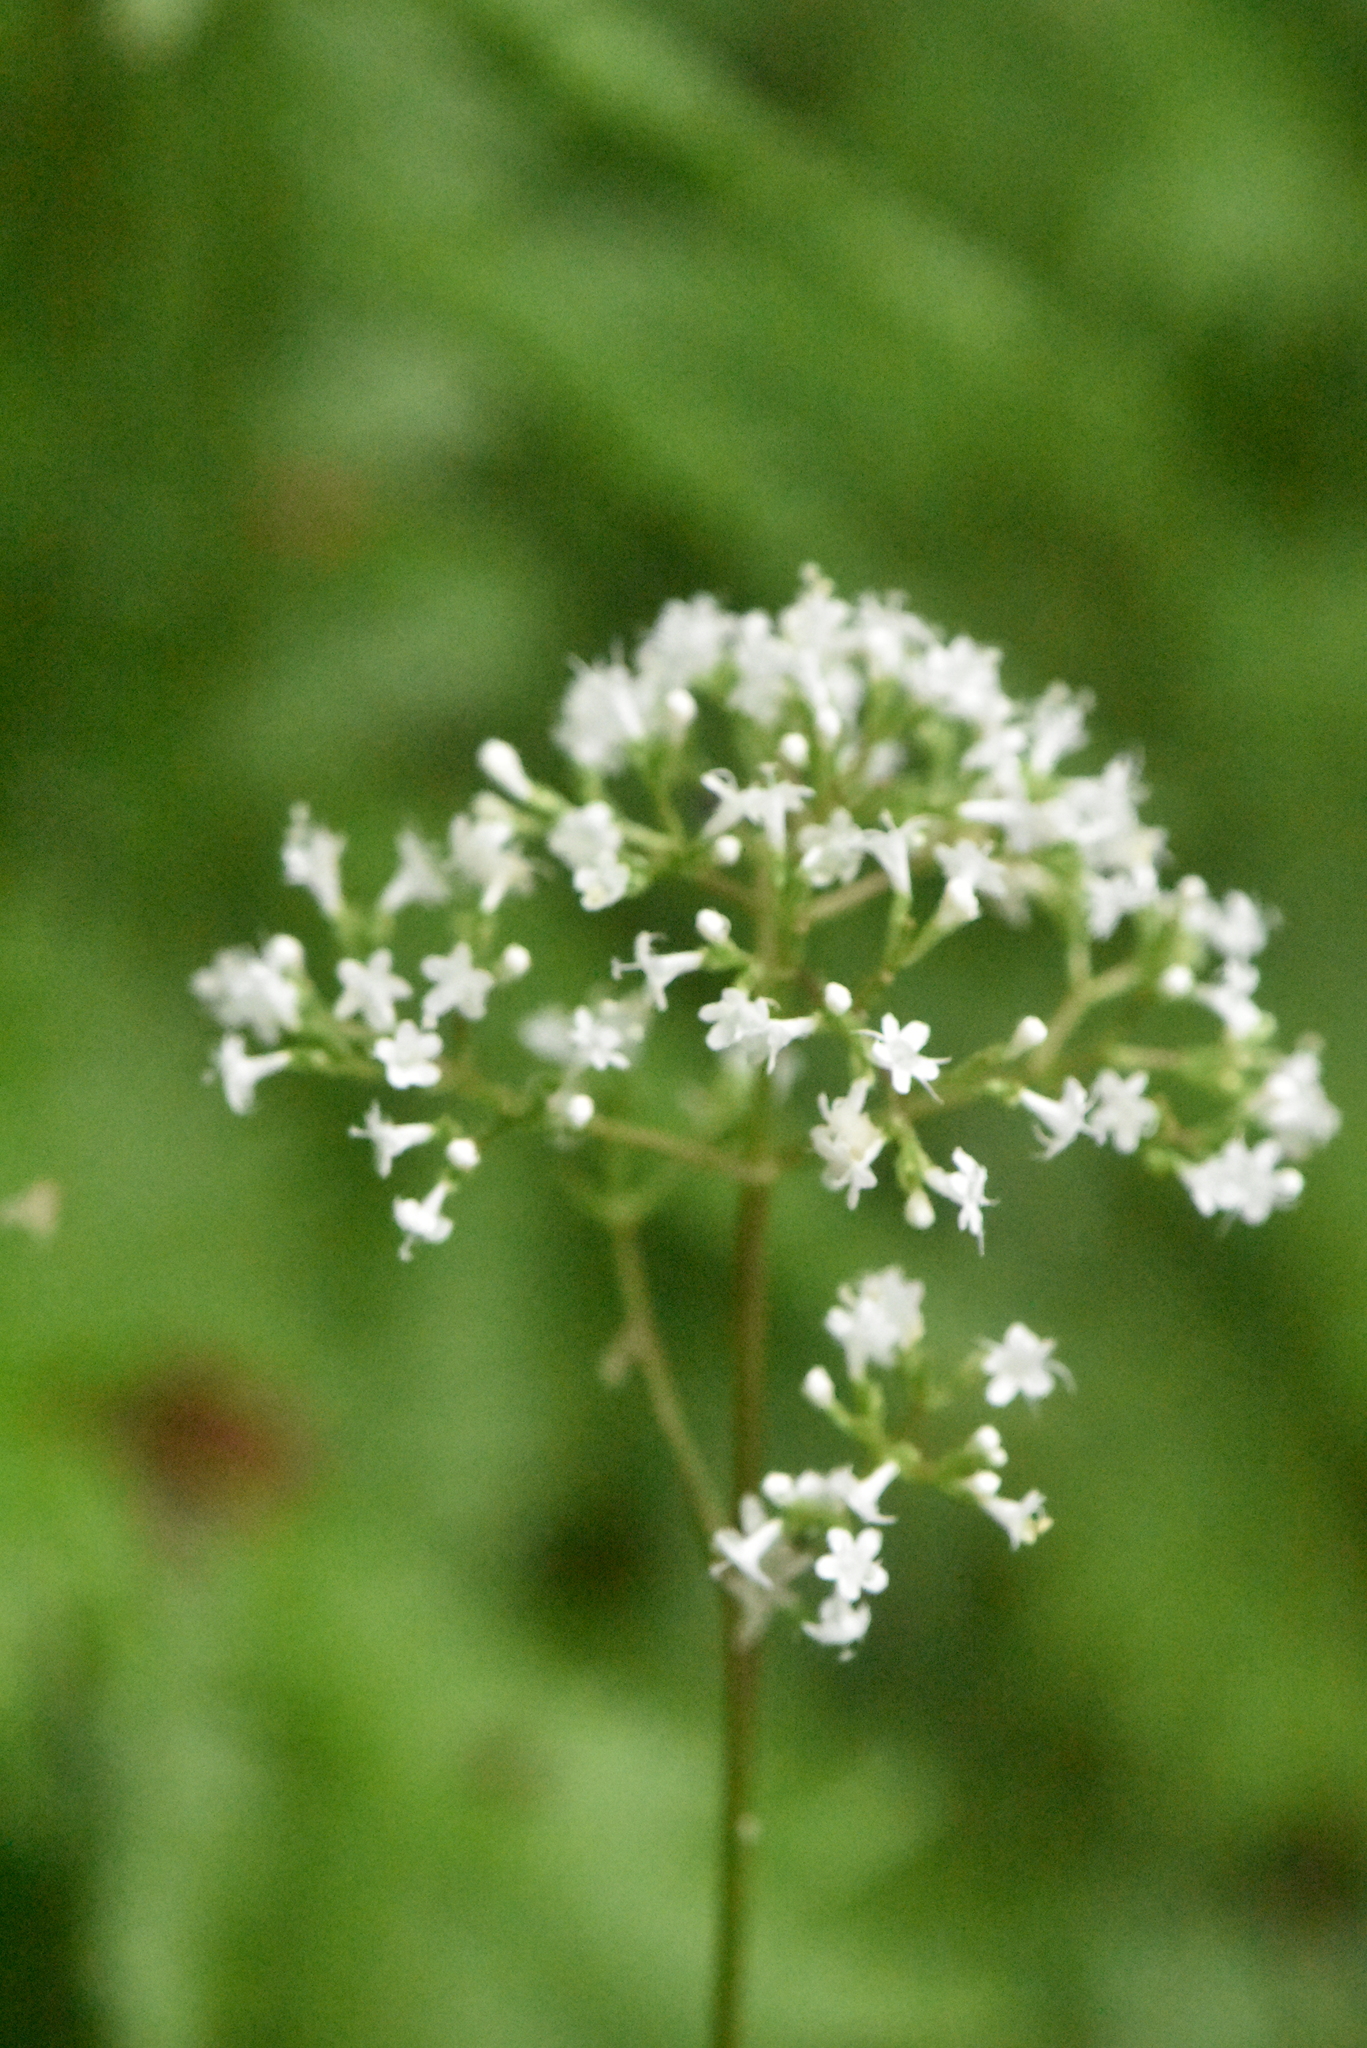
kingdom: Plantae
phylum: Tracheophyta
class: Magnoliopsida
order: Dipsacales
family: Caprifoliaceae
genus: Valeriana
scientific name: Valeriana officinalis
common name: Common valerian
